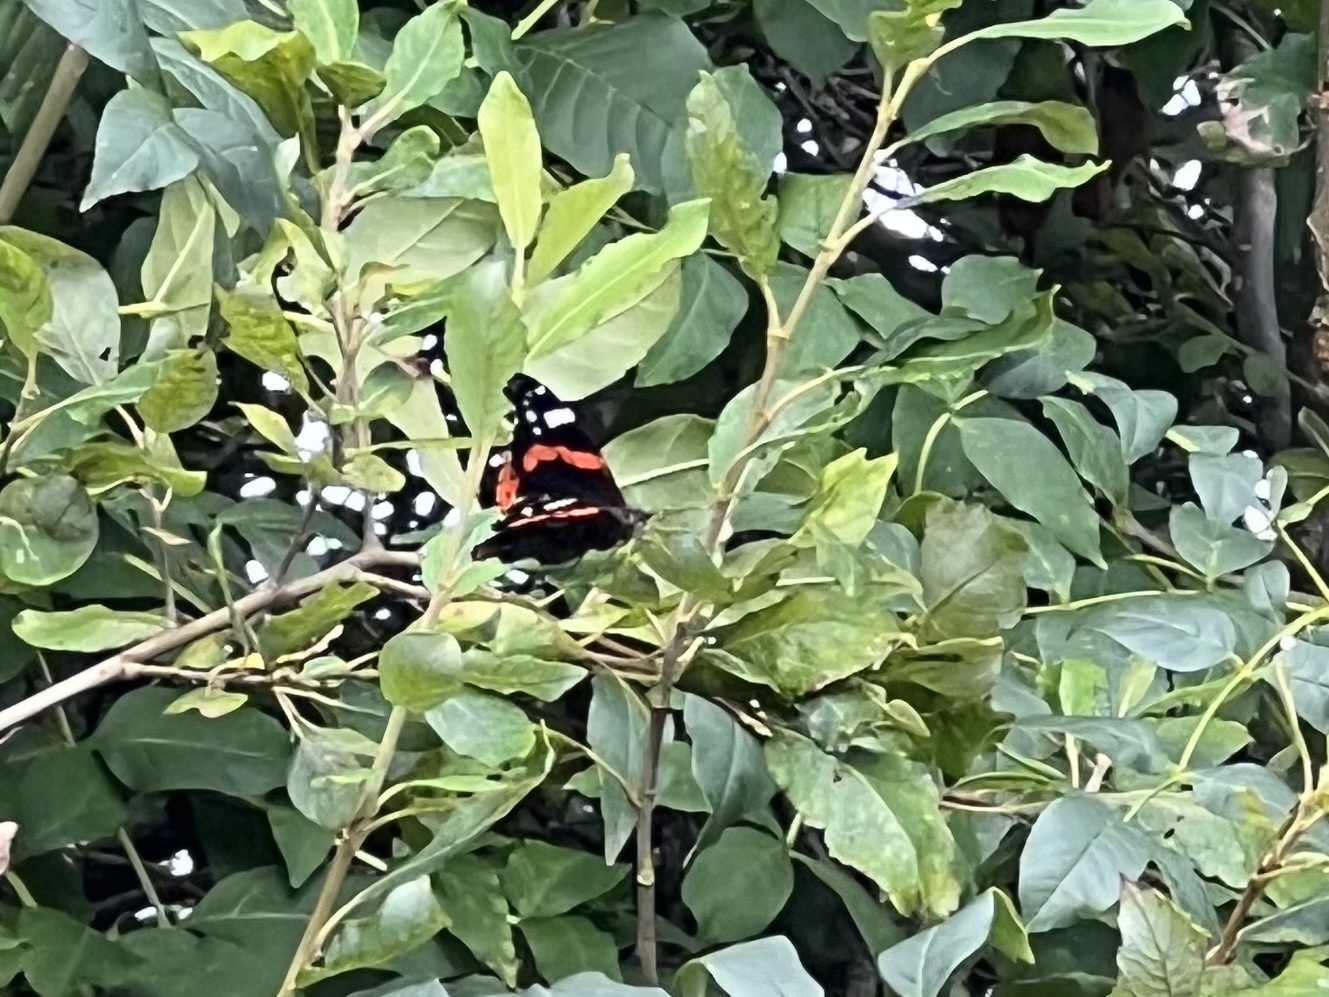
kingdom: Animalia
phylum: Arthropoda
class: Insecta
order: Lepidoptera
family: Nymphalidae
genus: Vanessa
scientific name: Vanessa atalanta
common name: Red admiral
